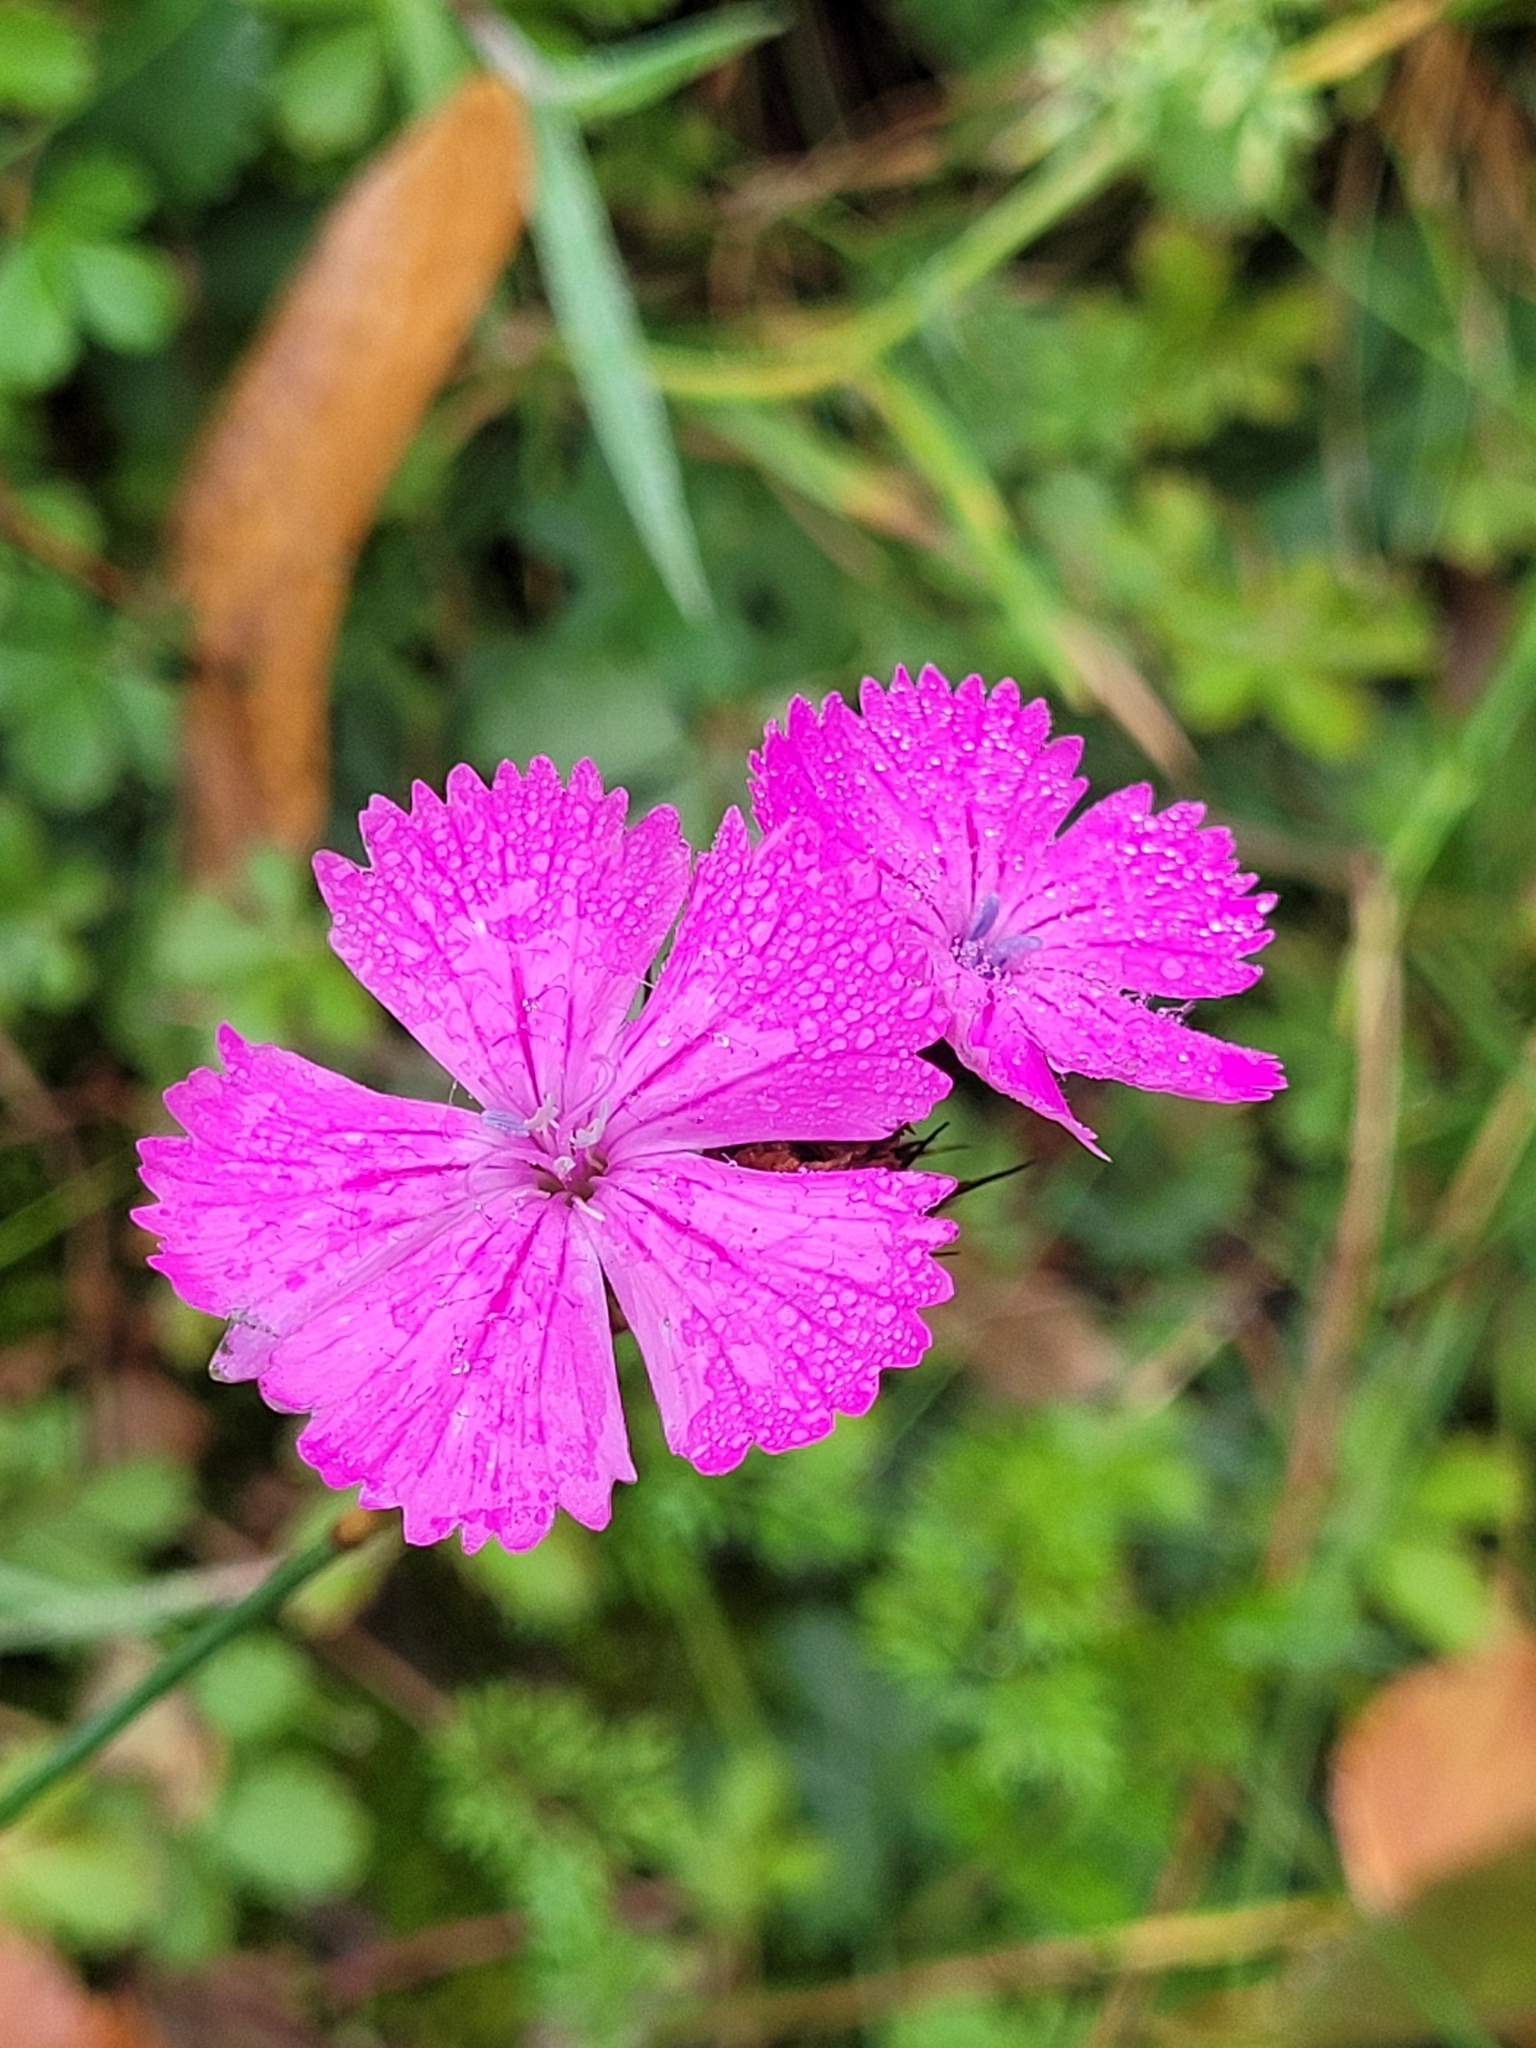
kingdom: Plantae
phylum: Tracheophyta
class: Magnoliopsida
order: Caryophyllales
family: Caryophyllaceae
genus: Dianthus
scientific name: Dianthus carthusianorum
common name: Carthusian pink
